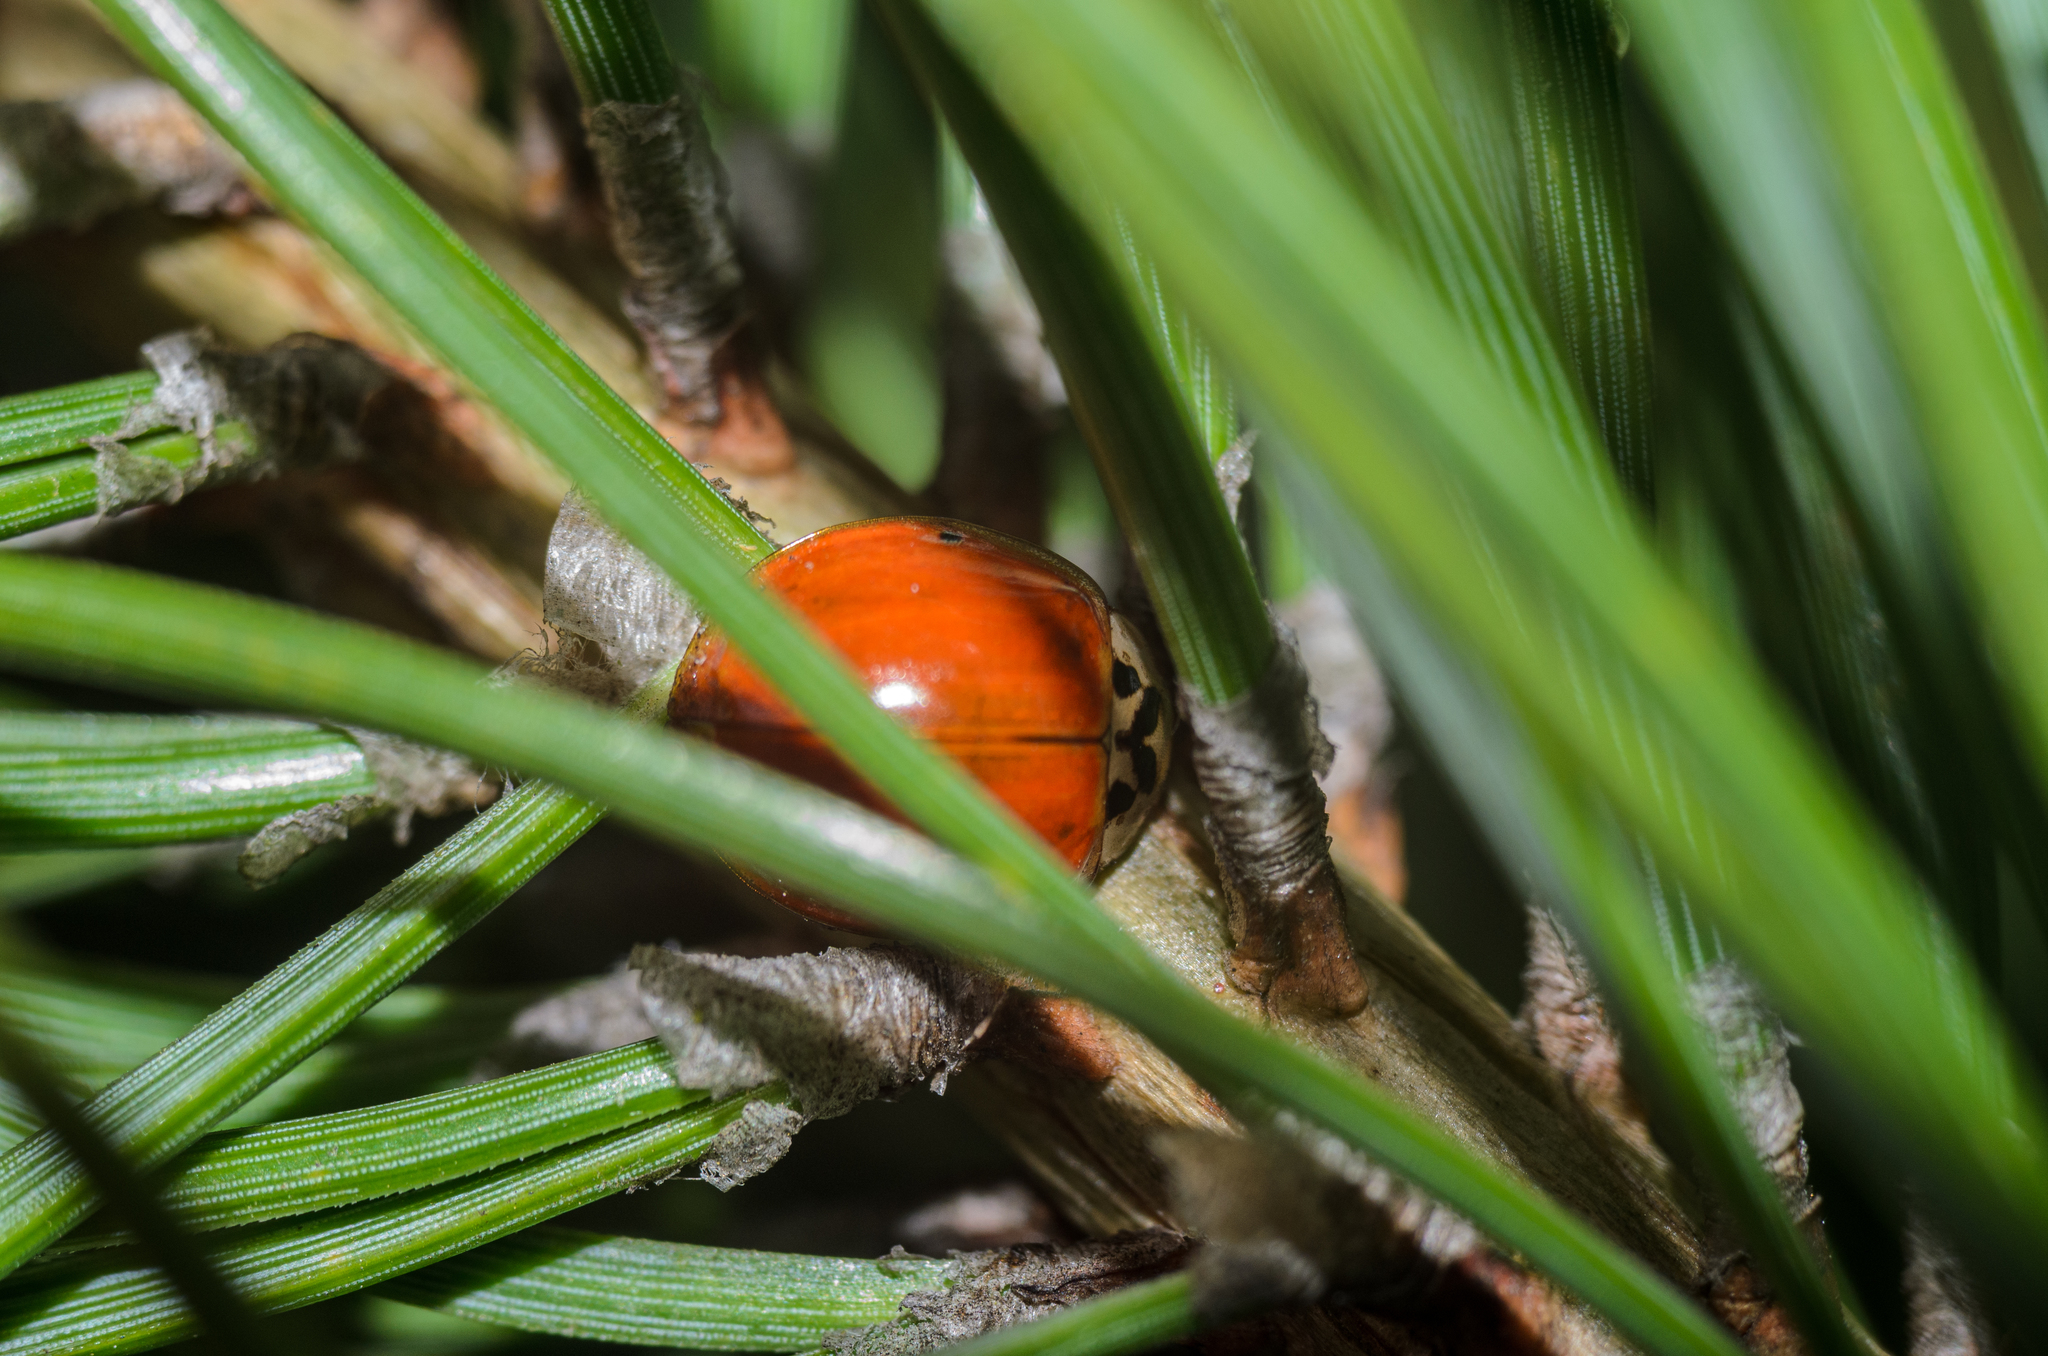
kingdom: Animalia
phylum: Arthropoda
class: Insecta
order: Coleoptera
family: Coccinellidae
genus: Harmonia
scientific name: Harmonia axyridis
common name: Harlequin ladybird
